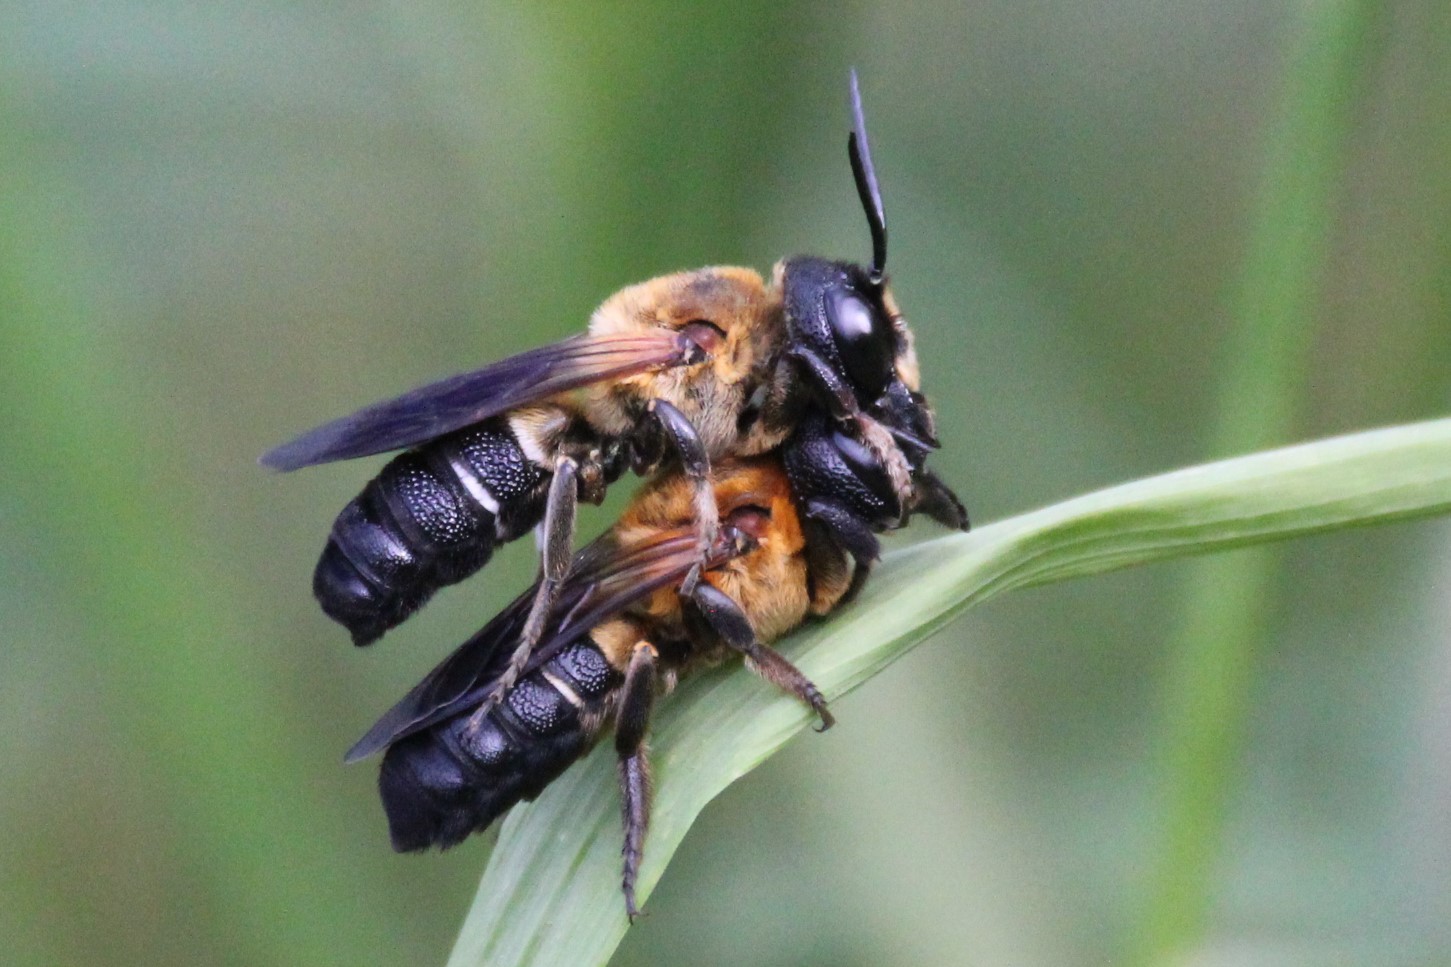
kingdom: Animalia
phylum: Arthropoda
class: Insecta
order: Hymenoptera
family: Megachilidae
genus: Megachile
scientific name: Megachile sculpturalis
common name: Sculptured resin bee
